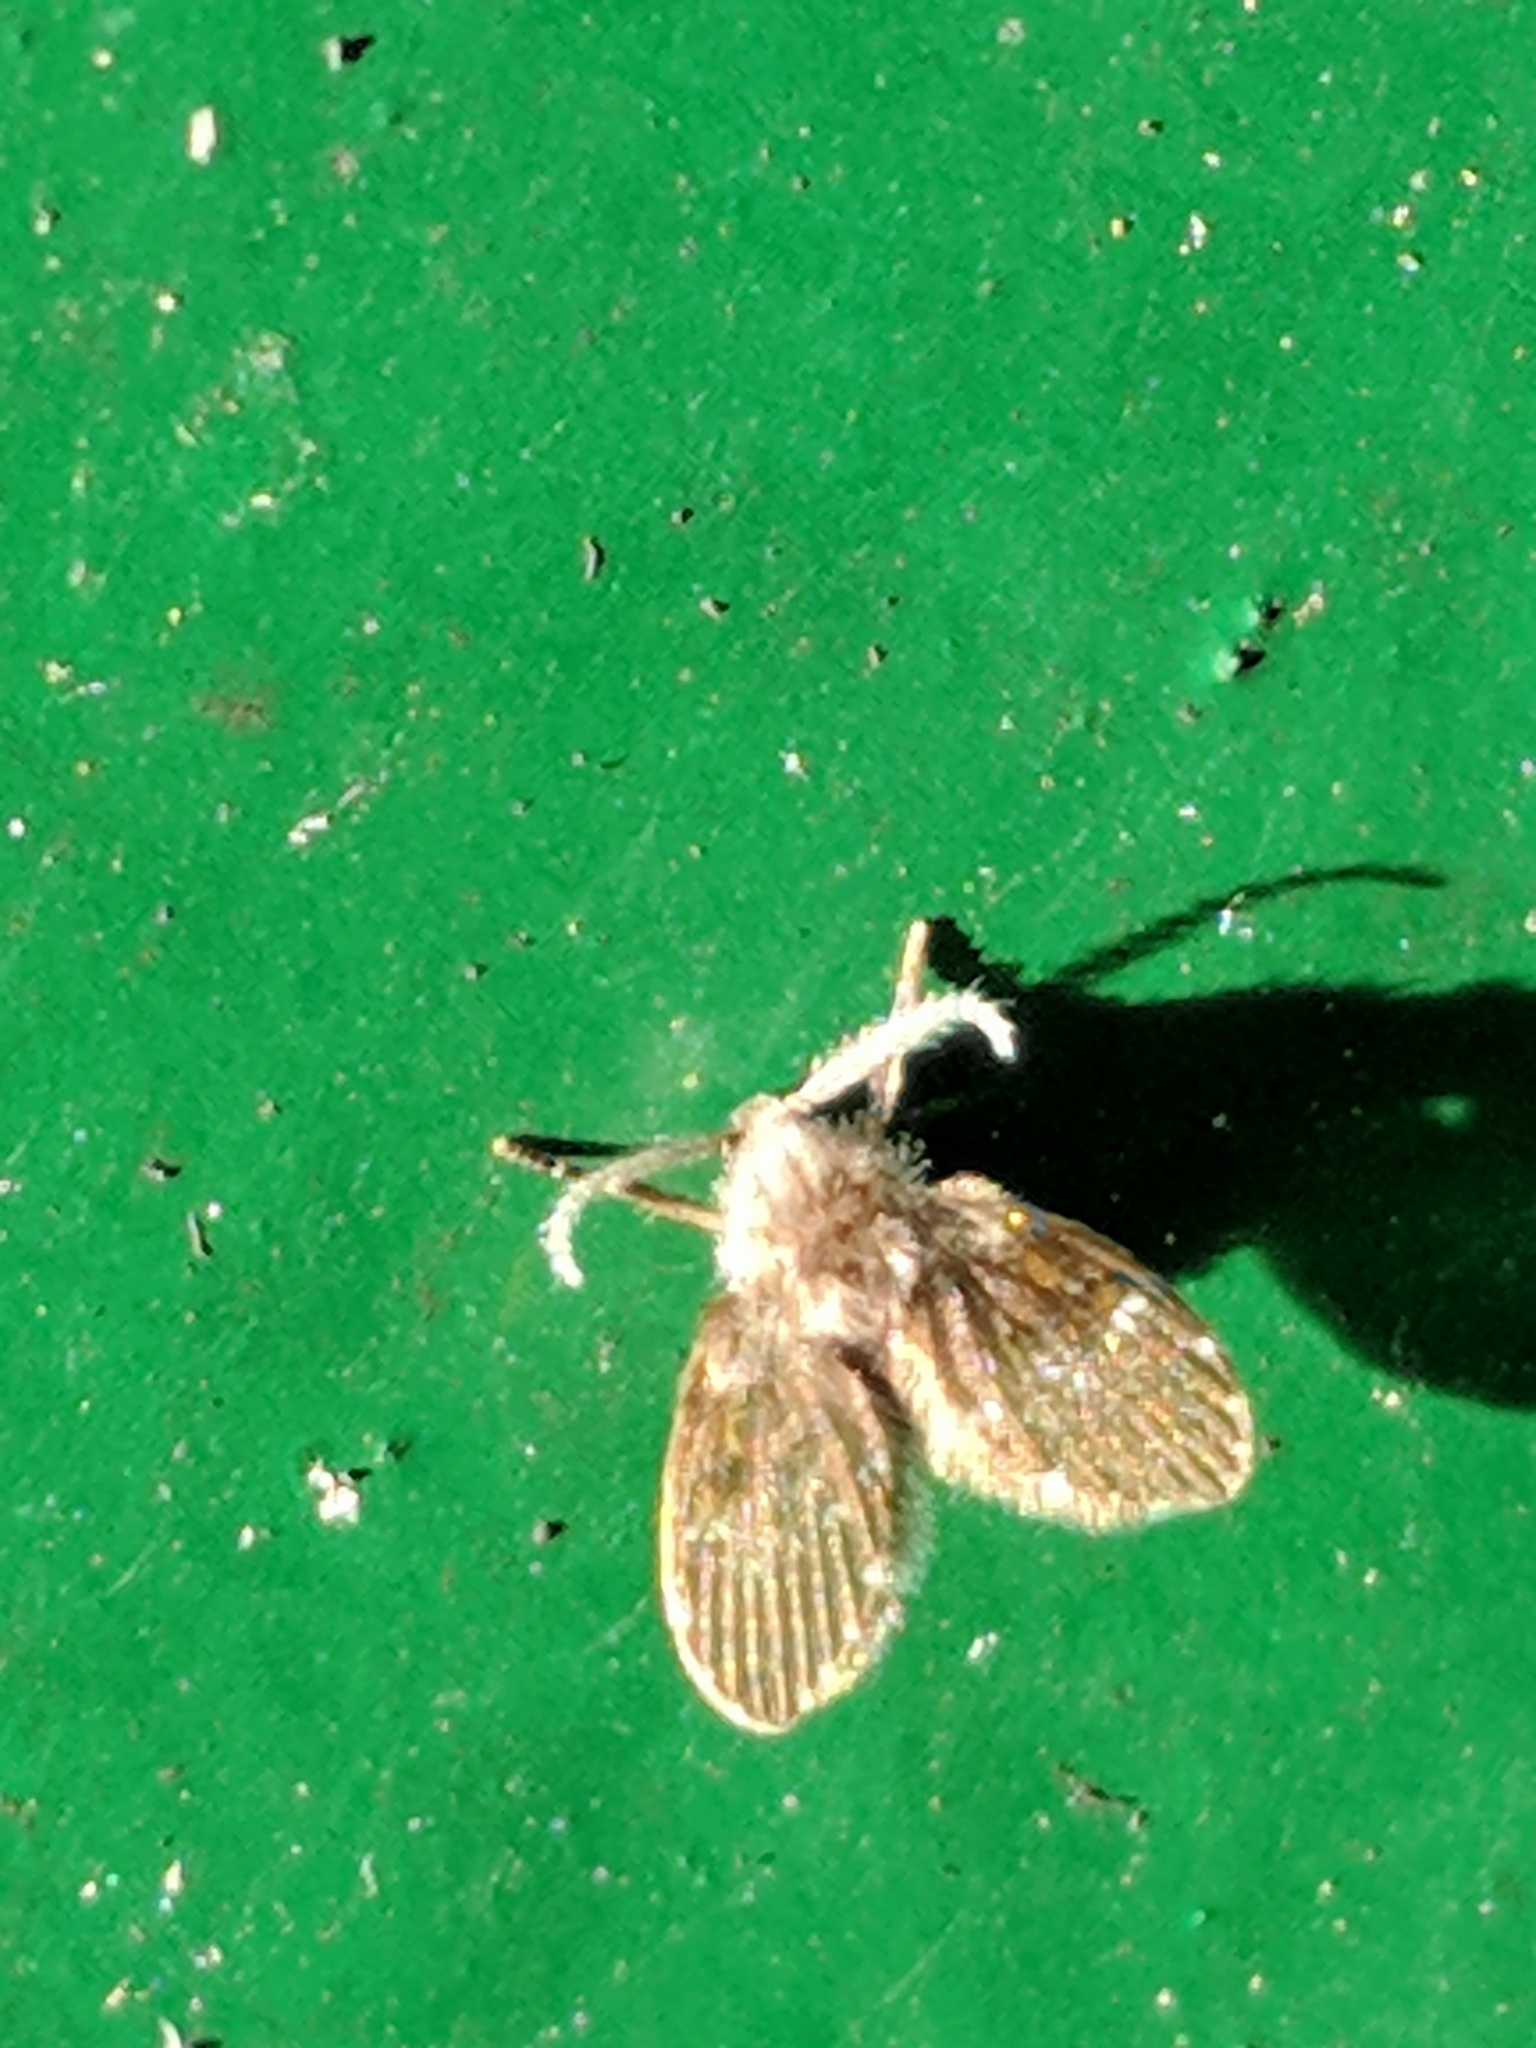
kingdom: Animalia
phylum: Arthropoda
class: Insecta
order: Diptera
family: Psychodidae
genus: Clogmia
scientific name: Clogmia albipunctatus
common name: White-spotted moth fly
